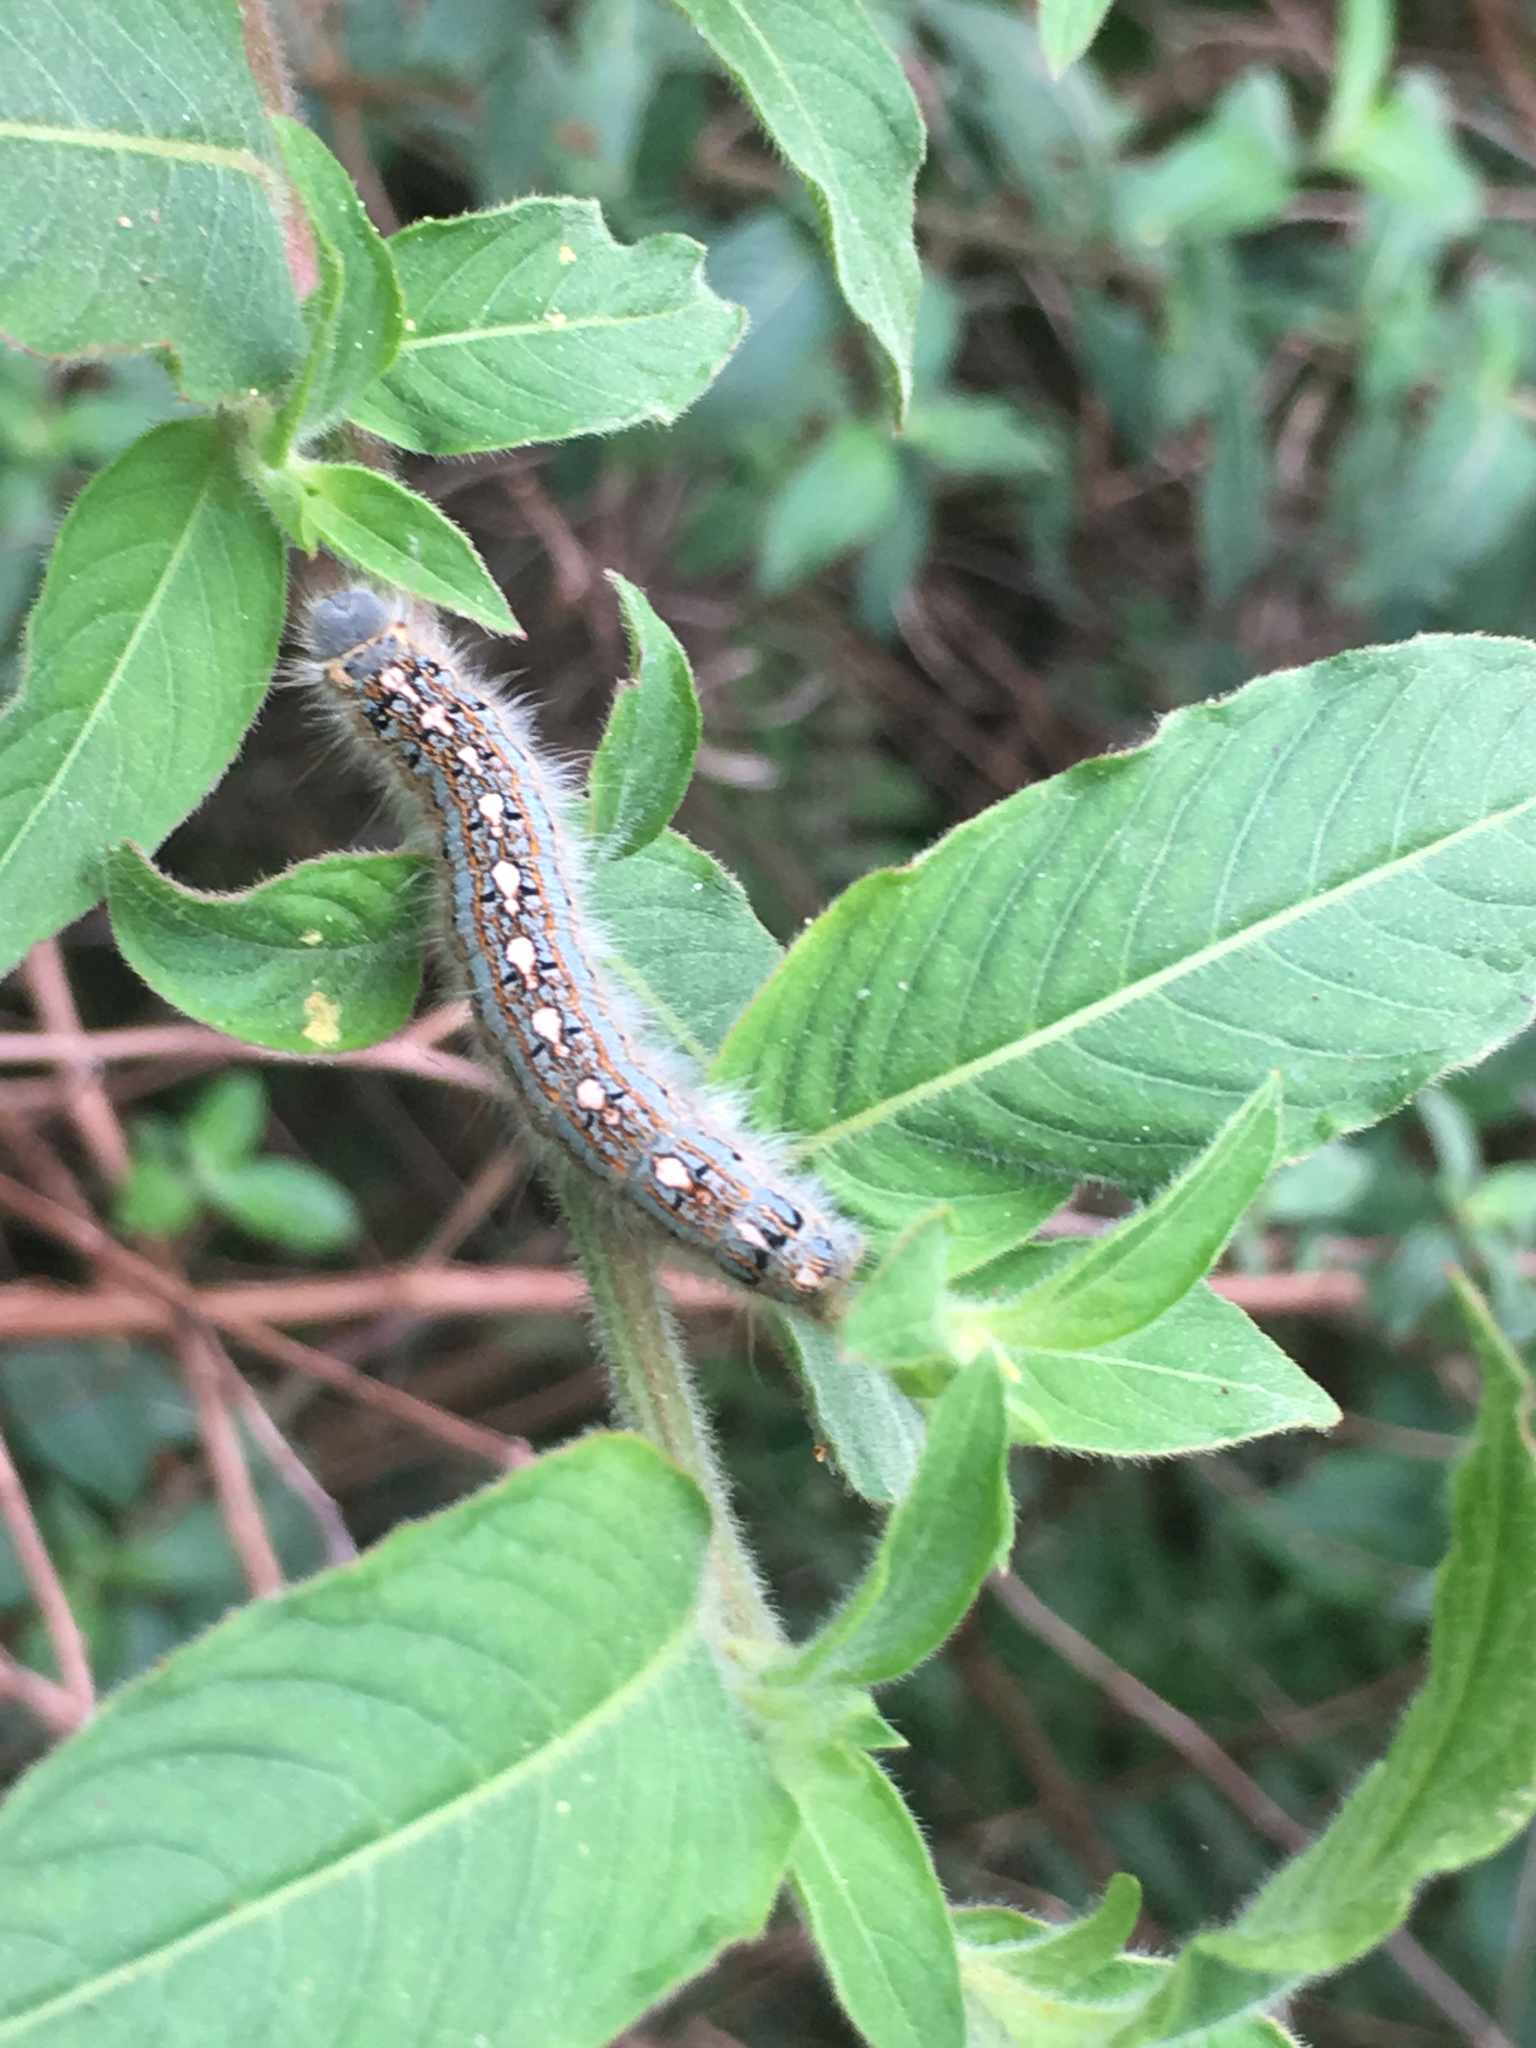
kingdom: Animalia
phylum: Arthropoda
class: Insecta
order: Lepidoptera
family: Lasiocampidae
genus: Malacosoma
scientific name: Malacosoma disstria
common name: Forest tent caterpillar
